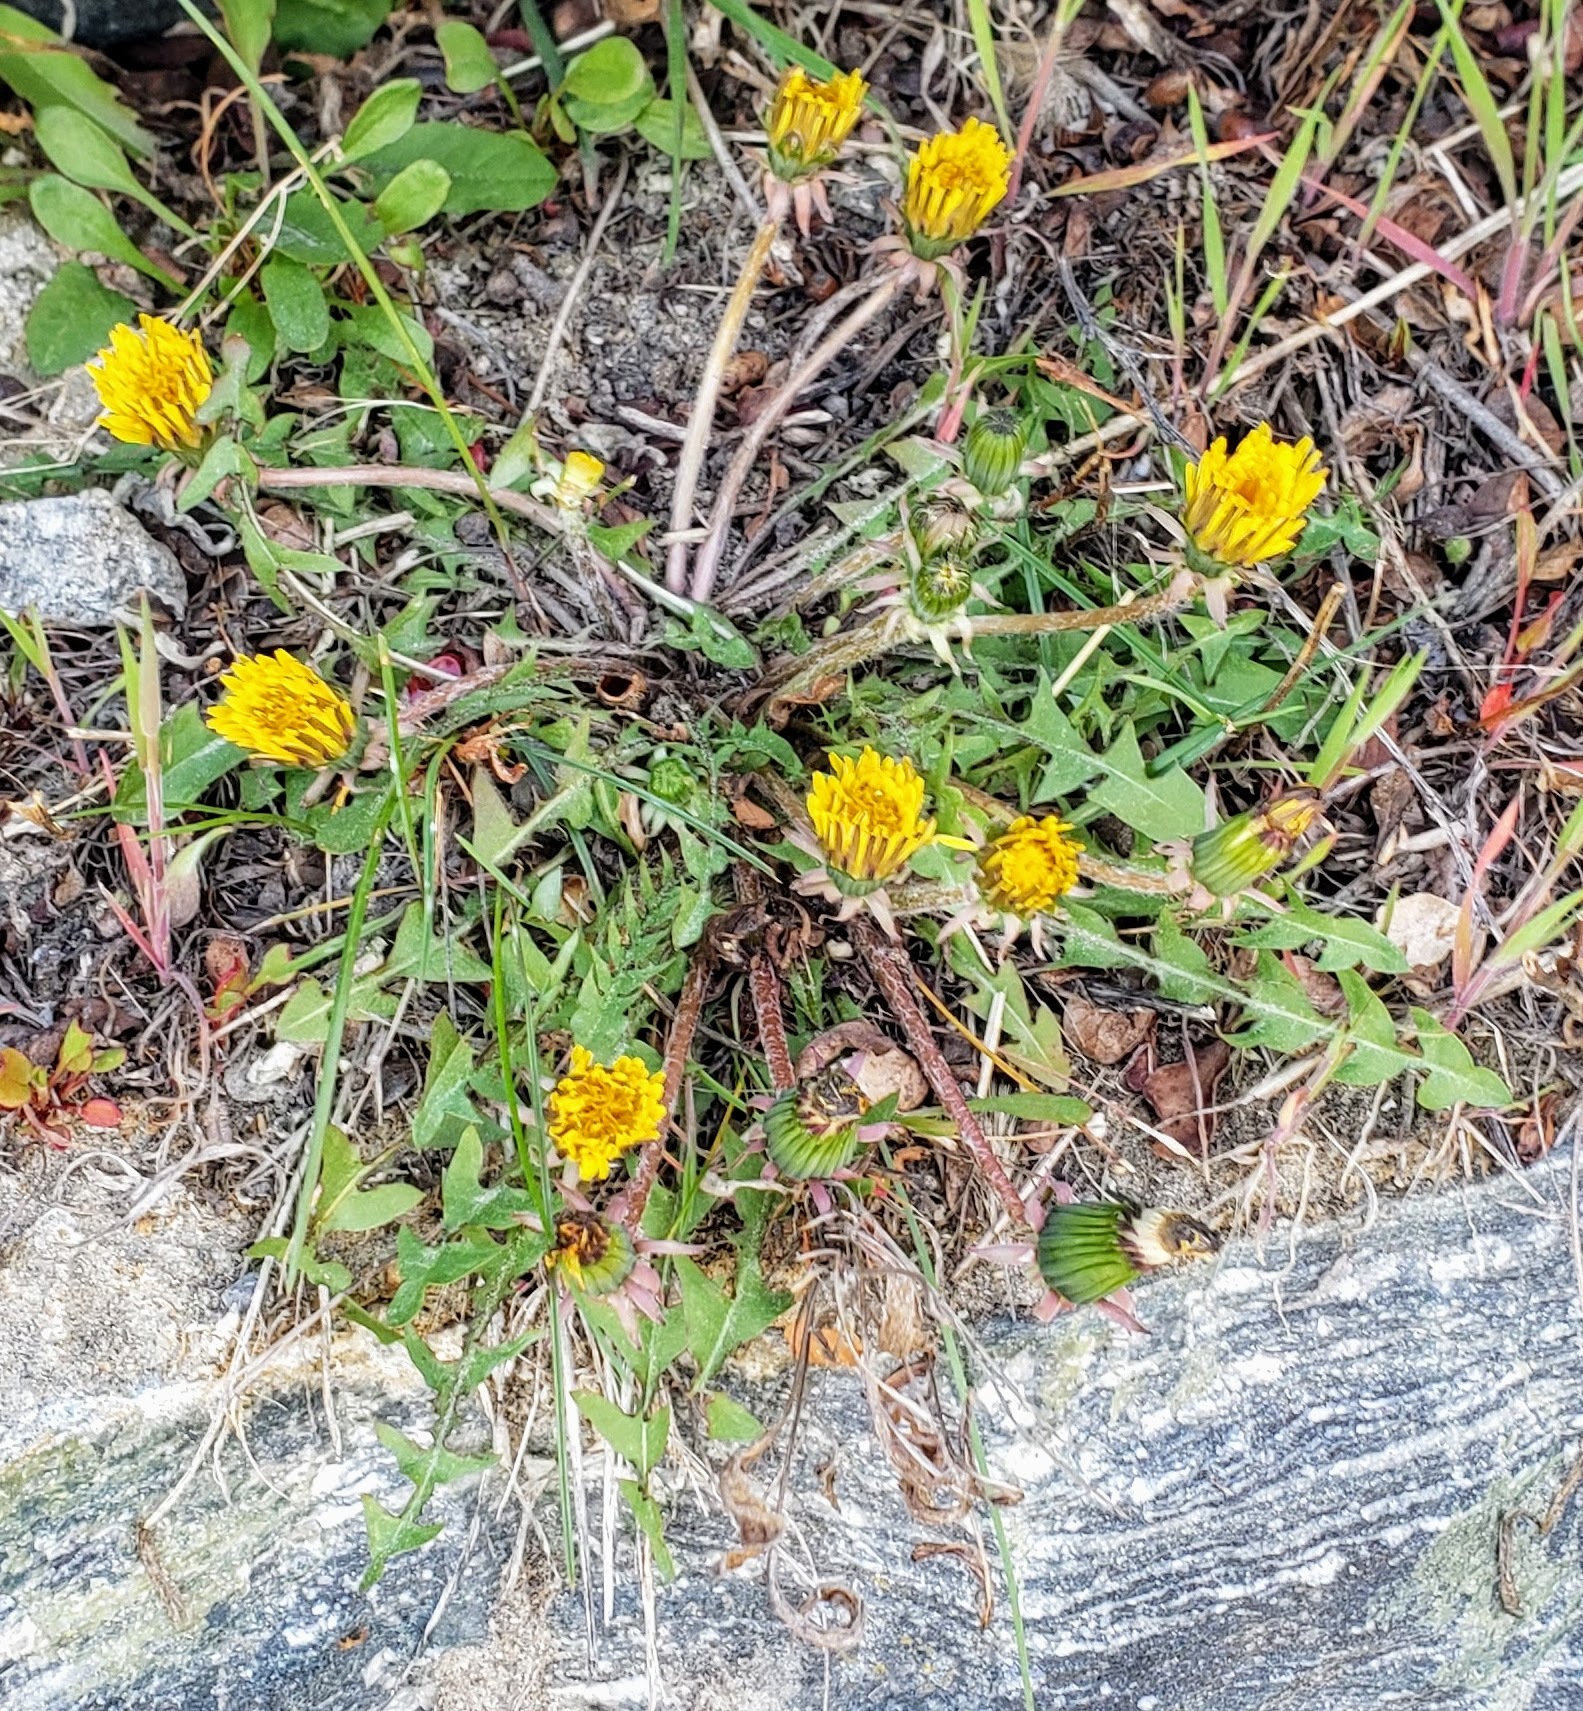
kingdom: Plantae
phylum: Tracheophyta
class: Magnoliopsida
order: Asterales
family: Asteraceae
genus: Taraxacum
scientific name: Taraxacum erythrospermum
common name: Rock dandelion
